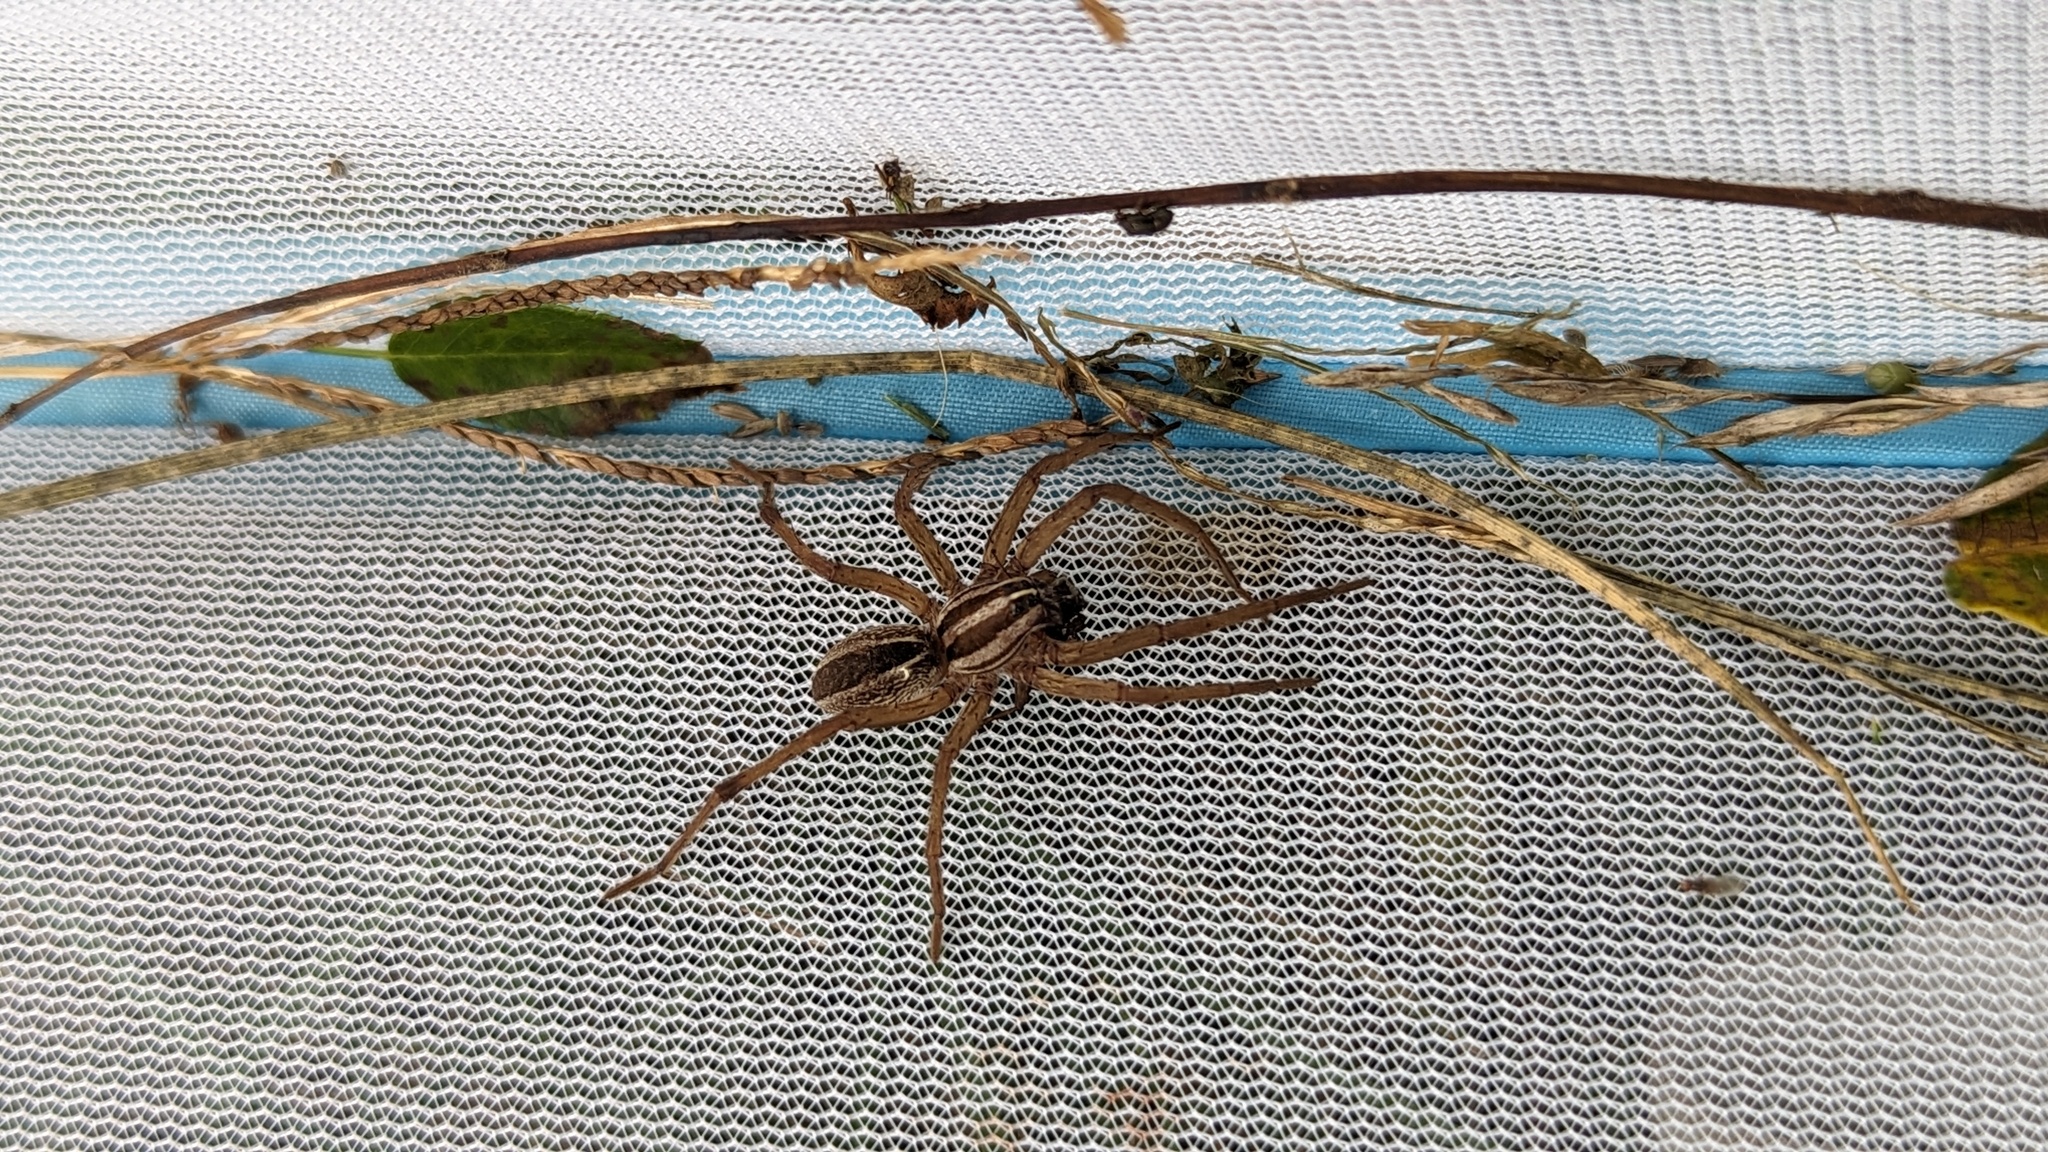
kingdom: Animalia
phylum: Arthropoda
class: Arachnida
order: Araneae
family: Lycosidae
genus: Rabidosa
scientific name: Rabidosa rabida
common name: Rabid wolf spider
